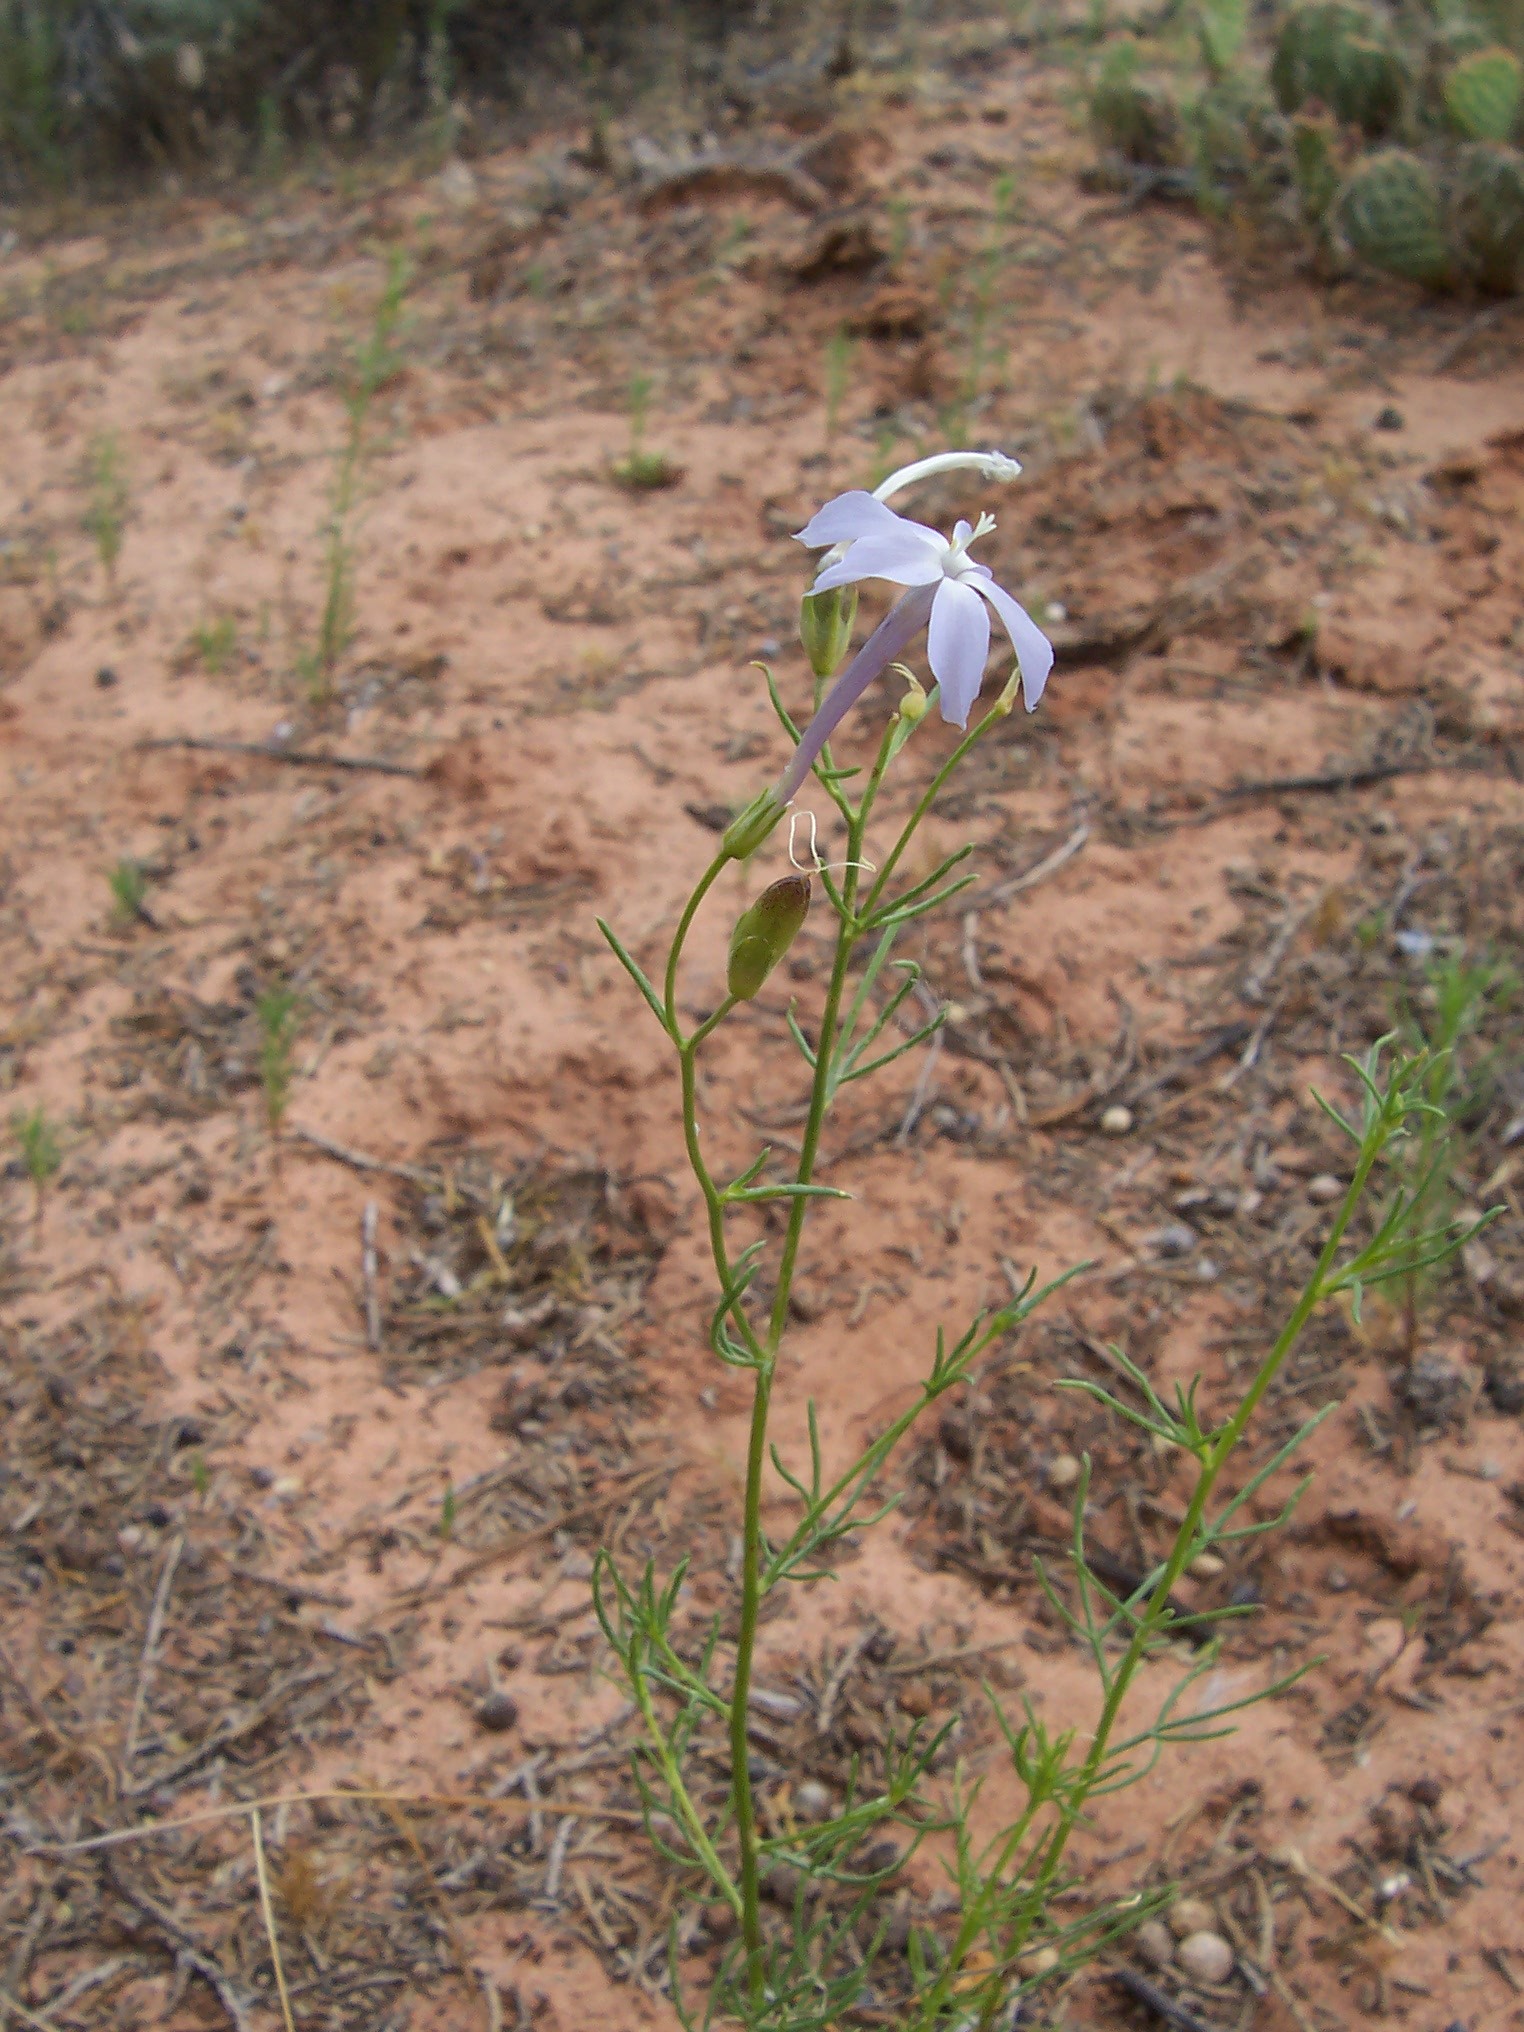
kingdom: Plantae
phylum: Tracheophyta
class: Magnoliopsida
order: Ericales
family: Polemoniaceae
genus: Ipomopsis
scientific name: Ipomopsis longiflora
